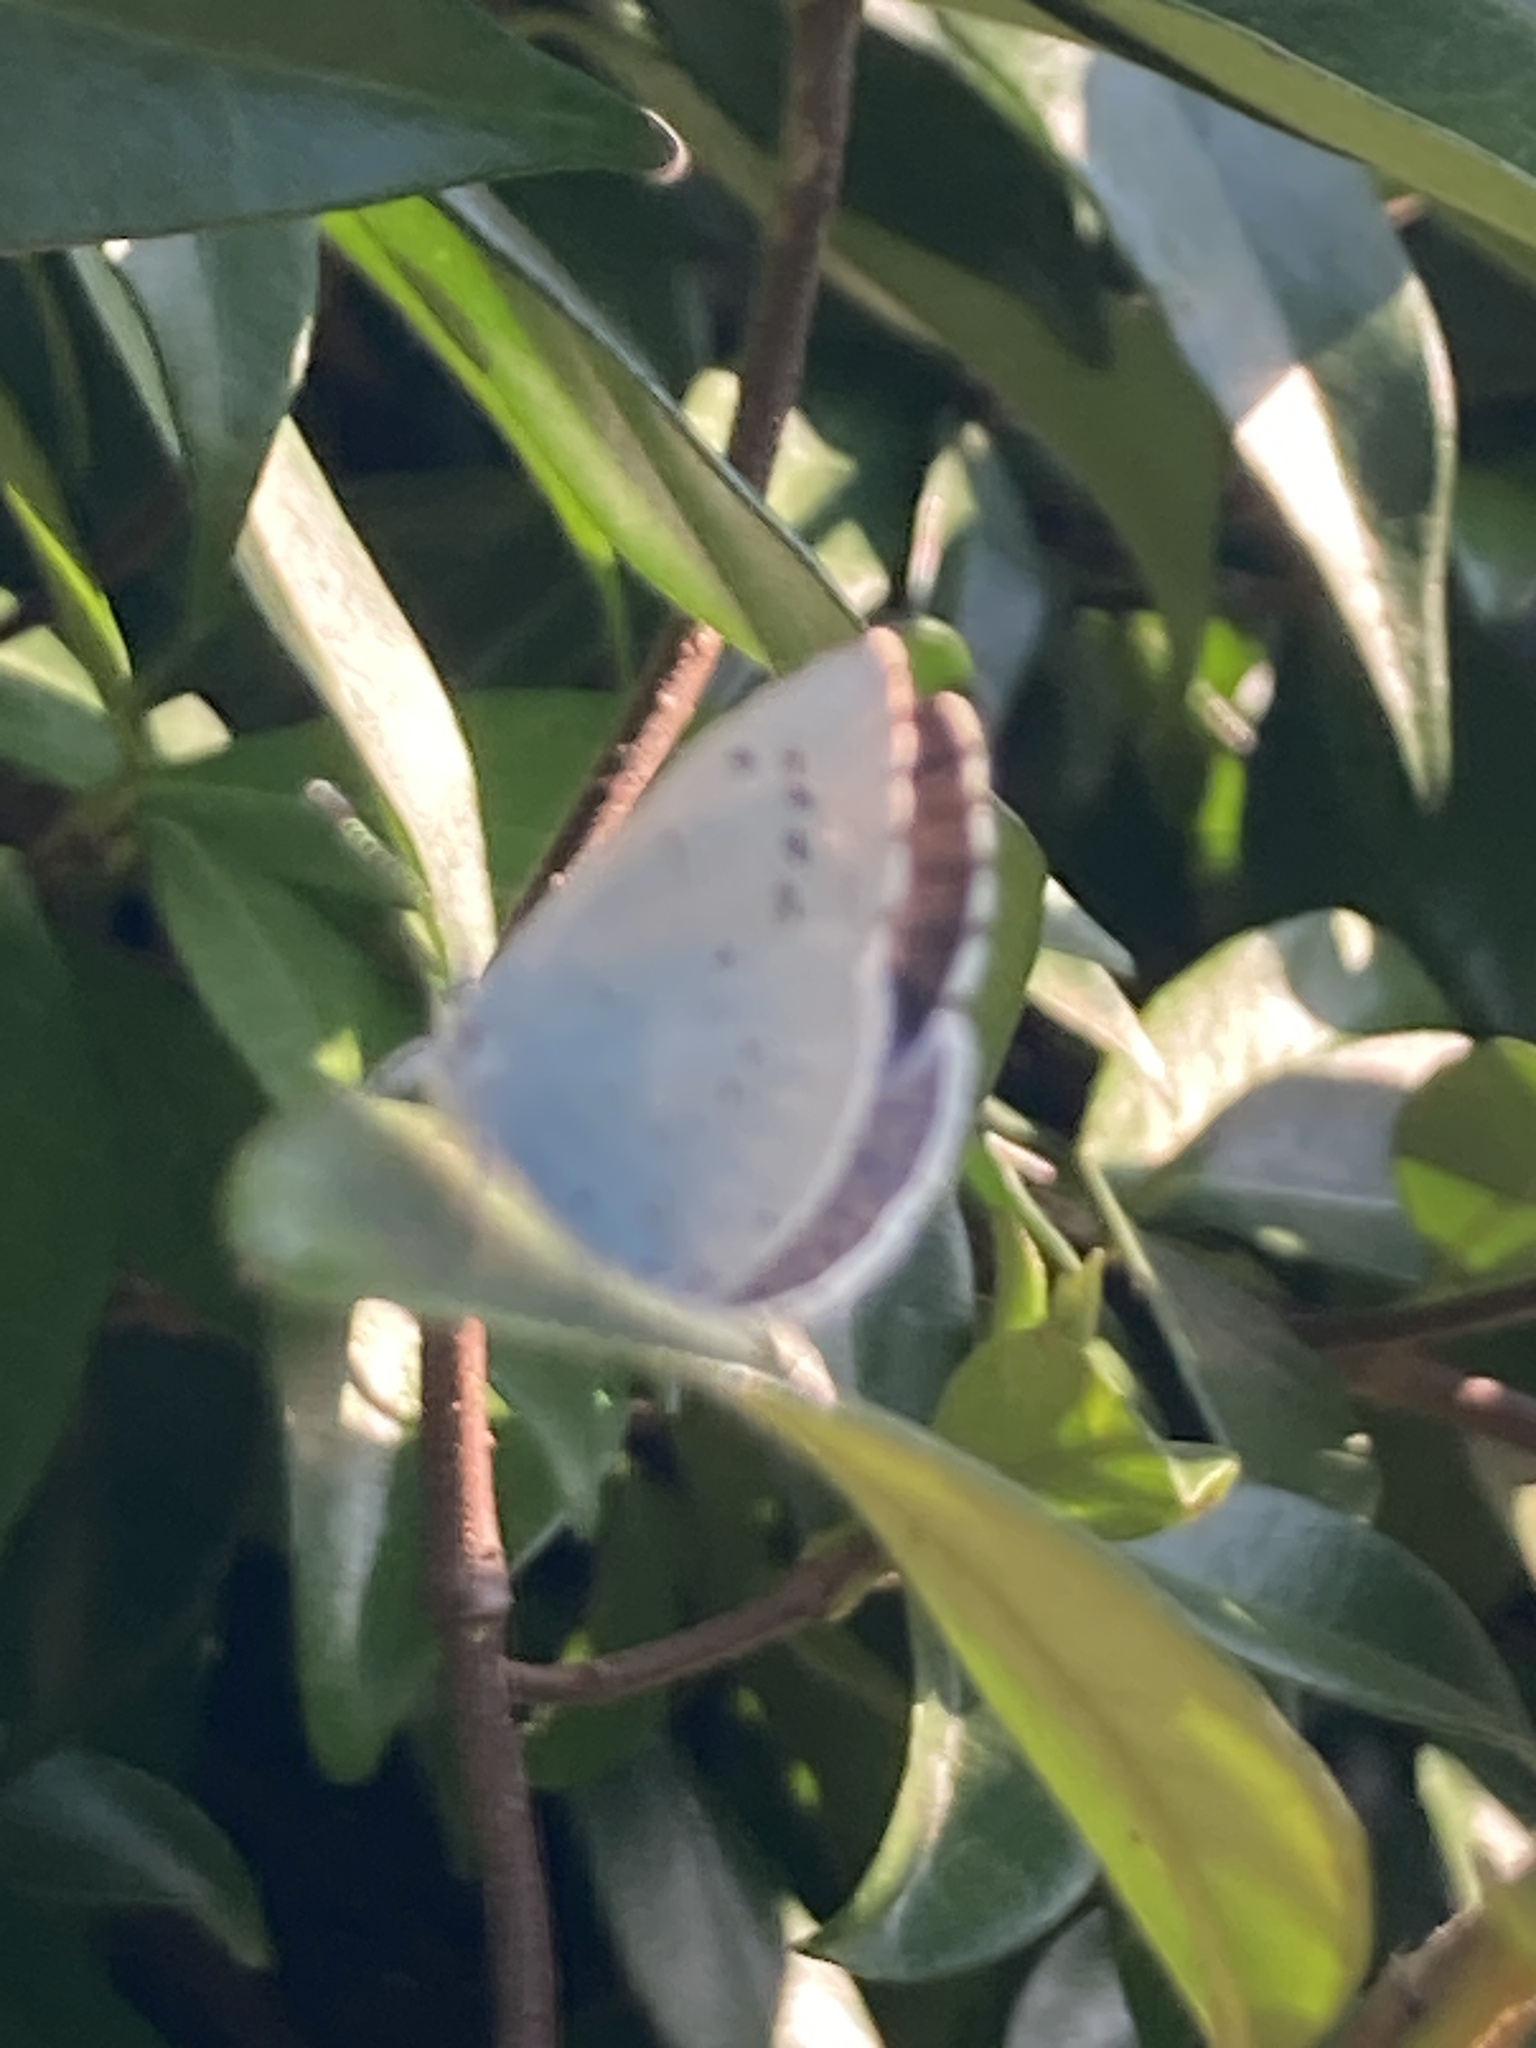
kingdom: Animalia
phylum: Arthropoda
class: Insecta
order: Lepidoptera
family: Lycaenidae
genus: Celastrina
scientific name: Celastrina argiolus
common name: Holly blue
